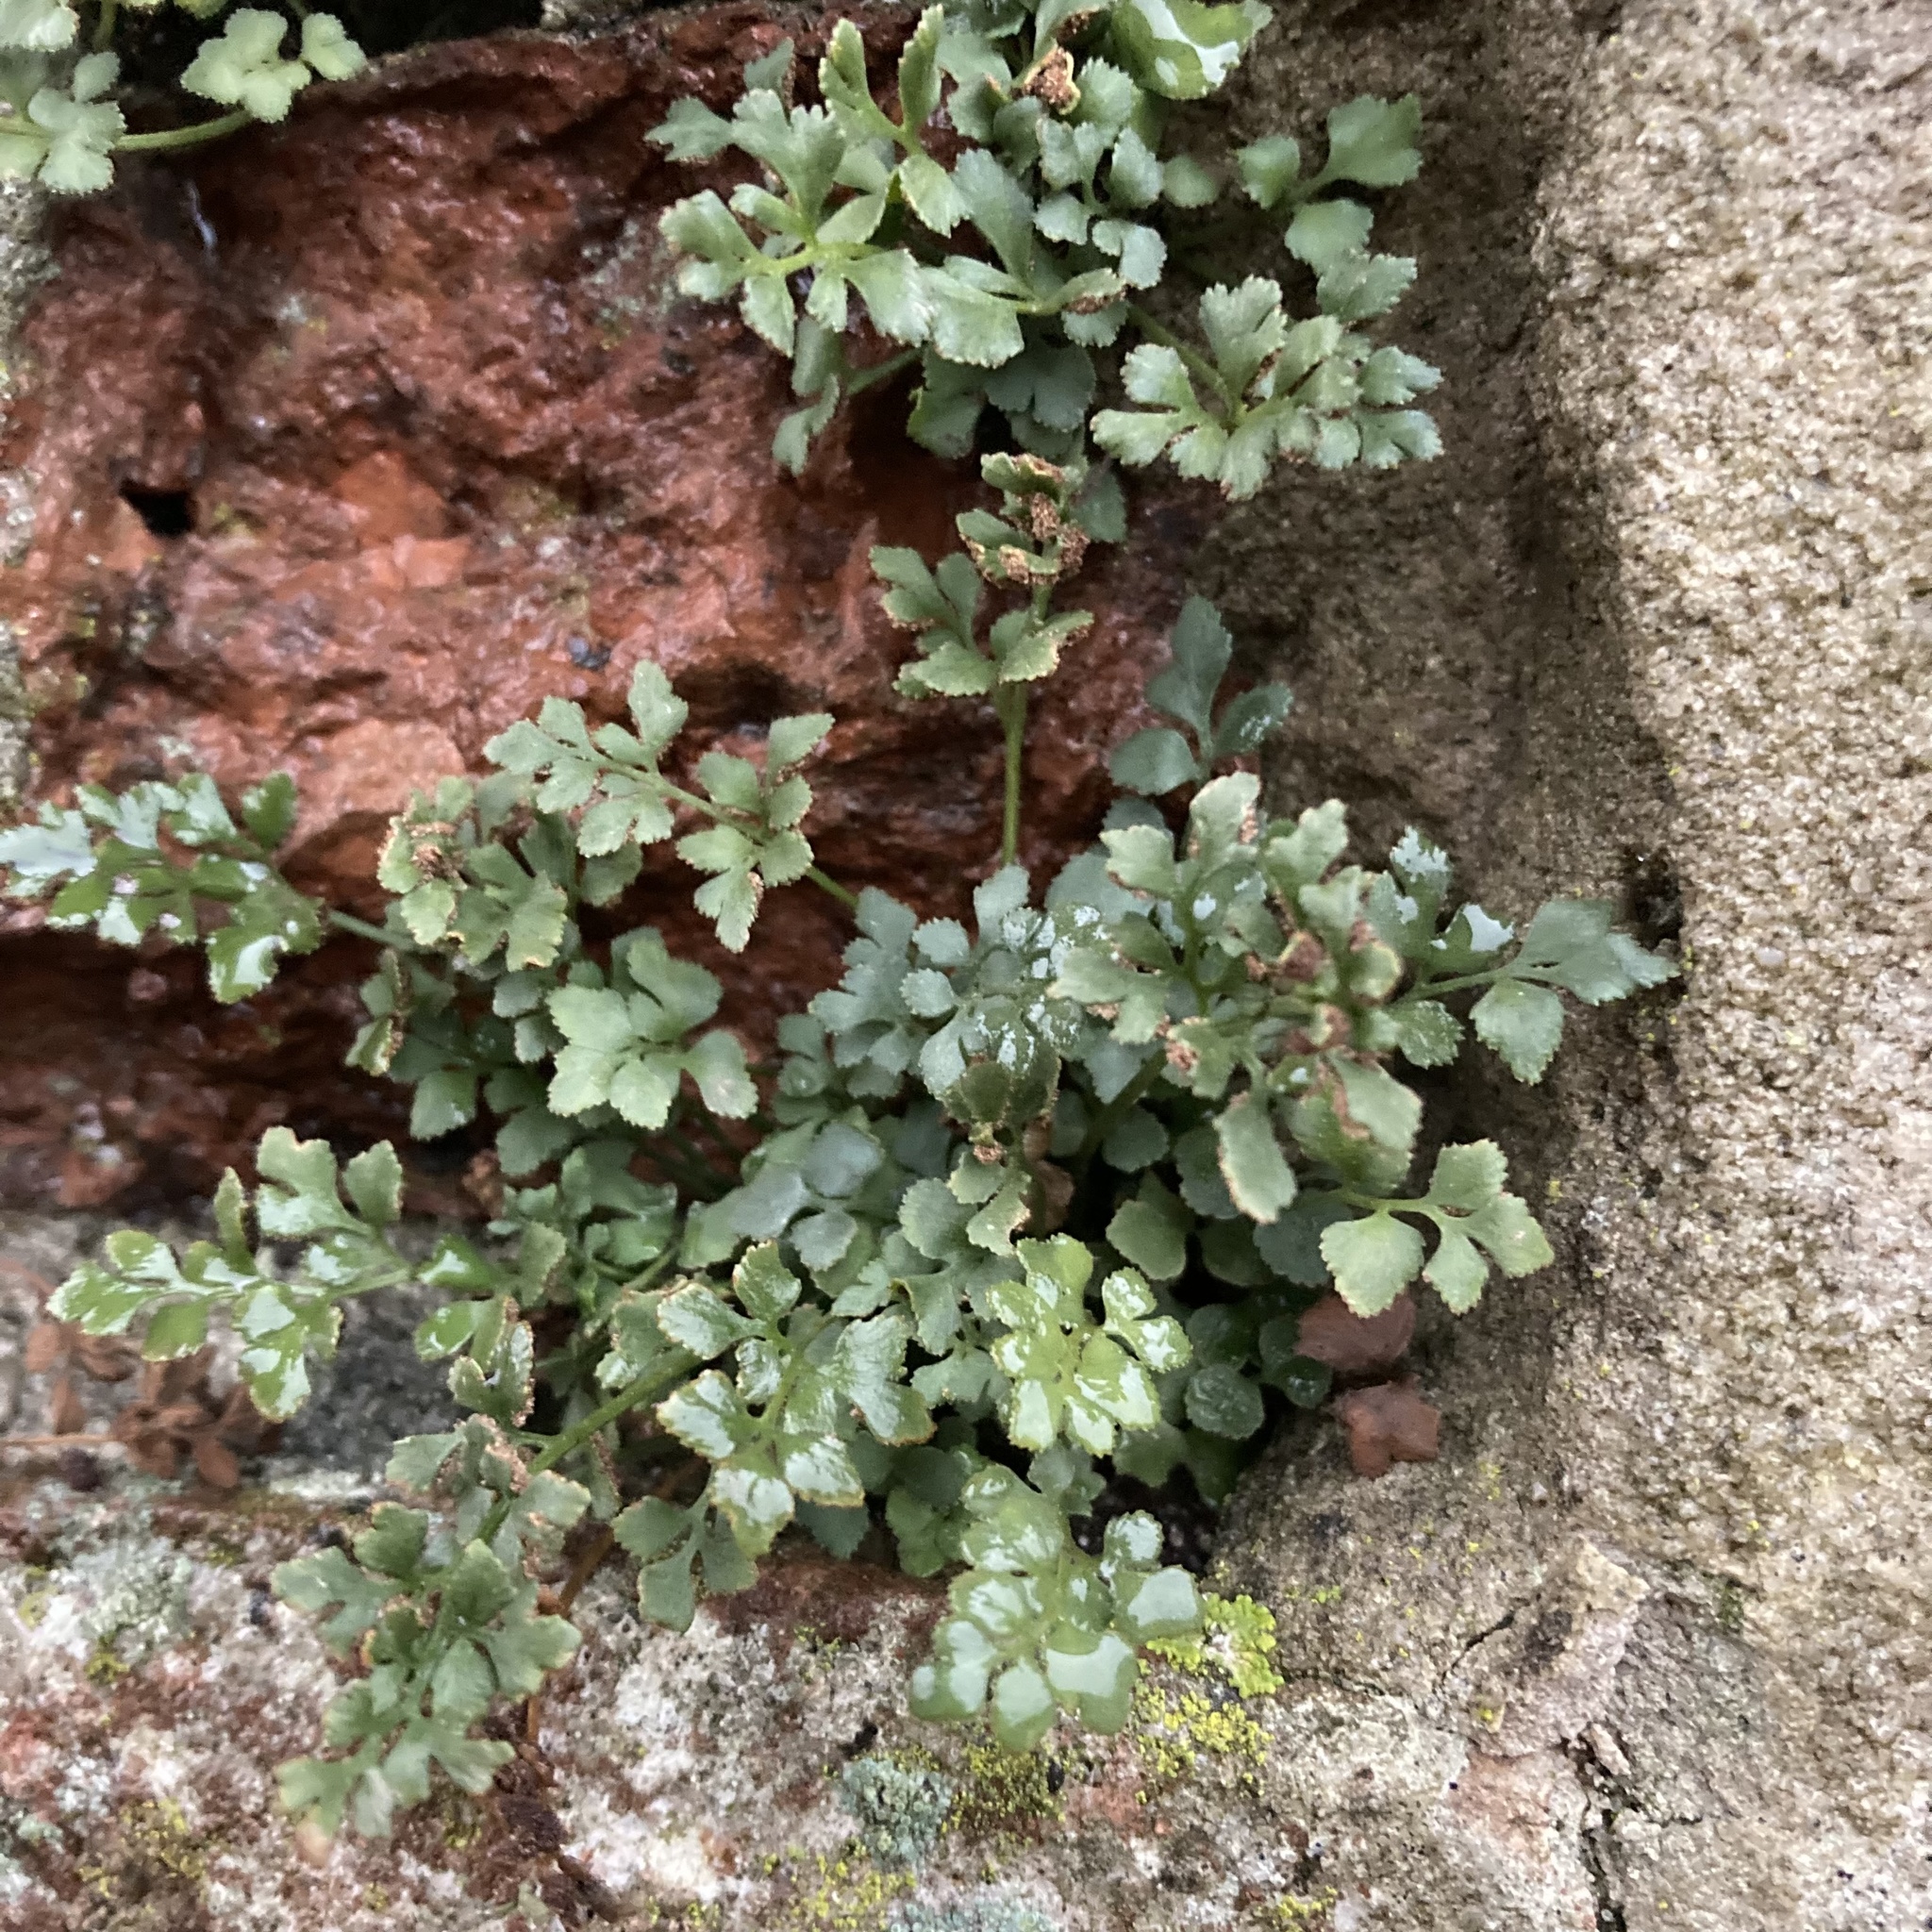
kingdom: Plantae
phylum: Tracheophyta
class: Polypodiopsida
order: Polypodiales
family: Aspleniaceae
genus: Asplenium
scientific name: Asplenium ruta-muraria
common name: Wall-rue
